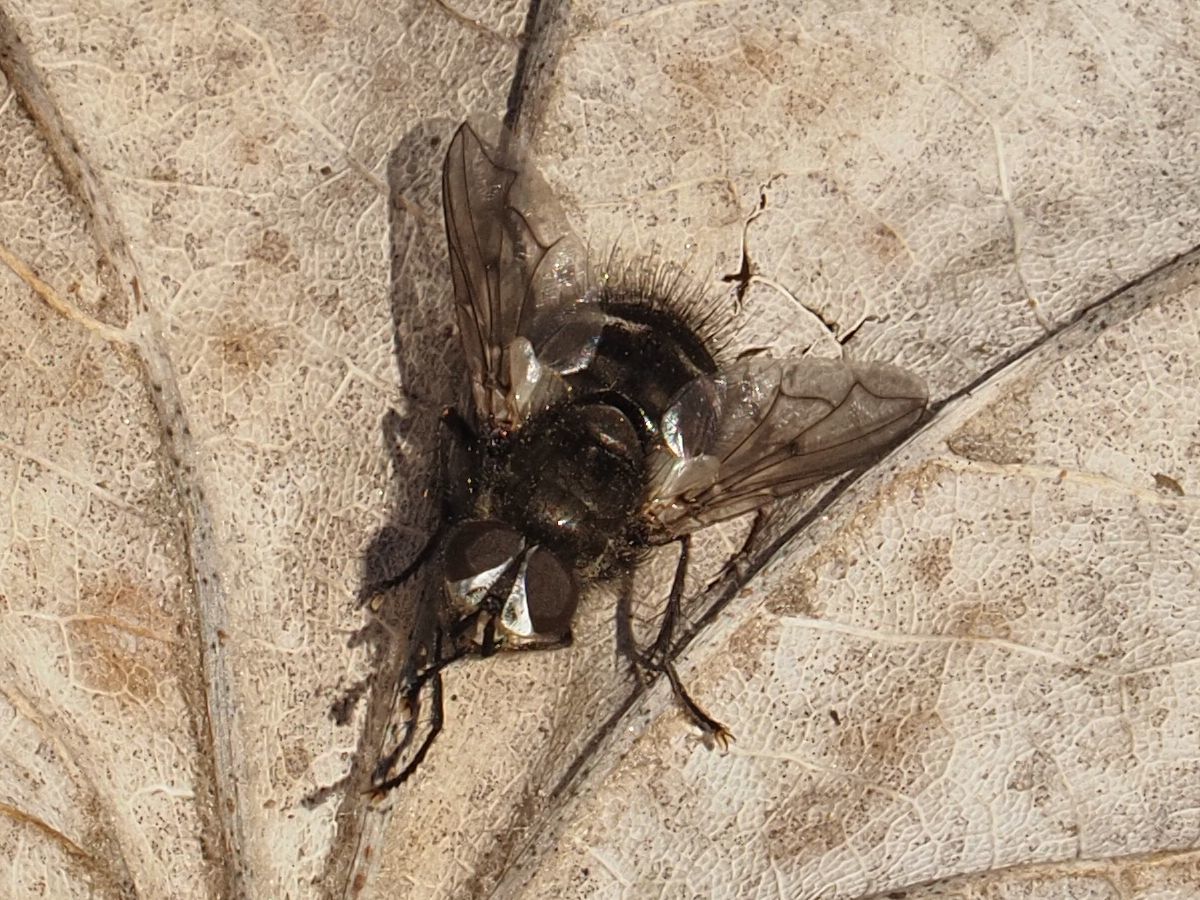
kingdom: Animalia
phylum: Arthropoda
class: Insecta
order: Diptera
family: Tachinidae
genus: Panzeria
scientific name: Panzeria puparum
